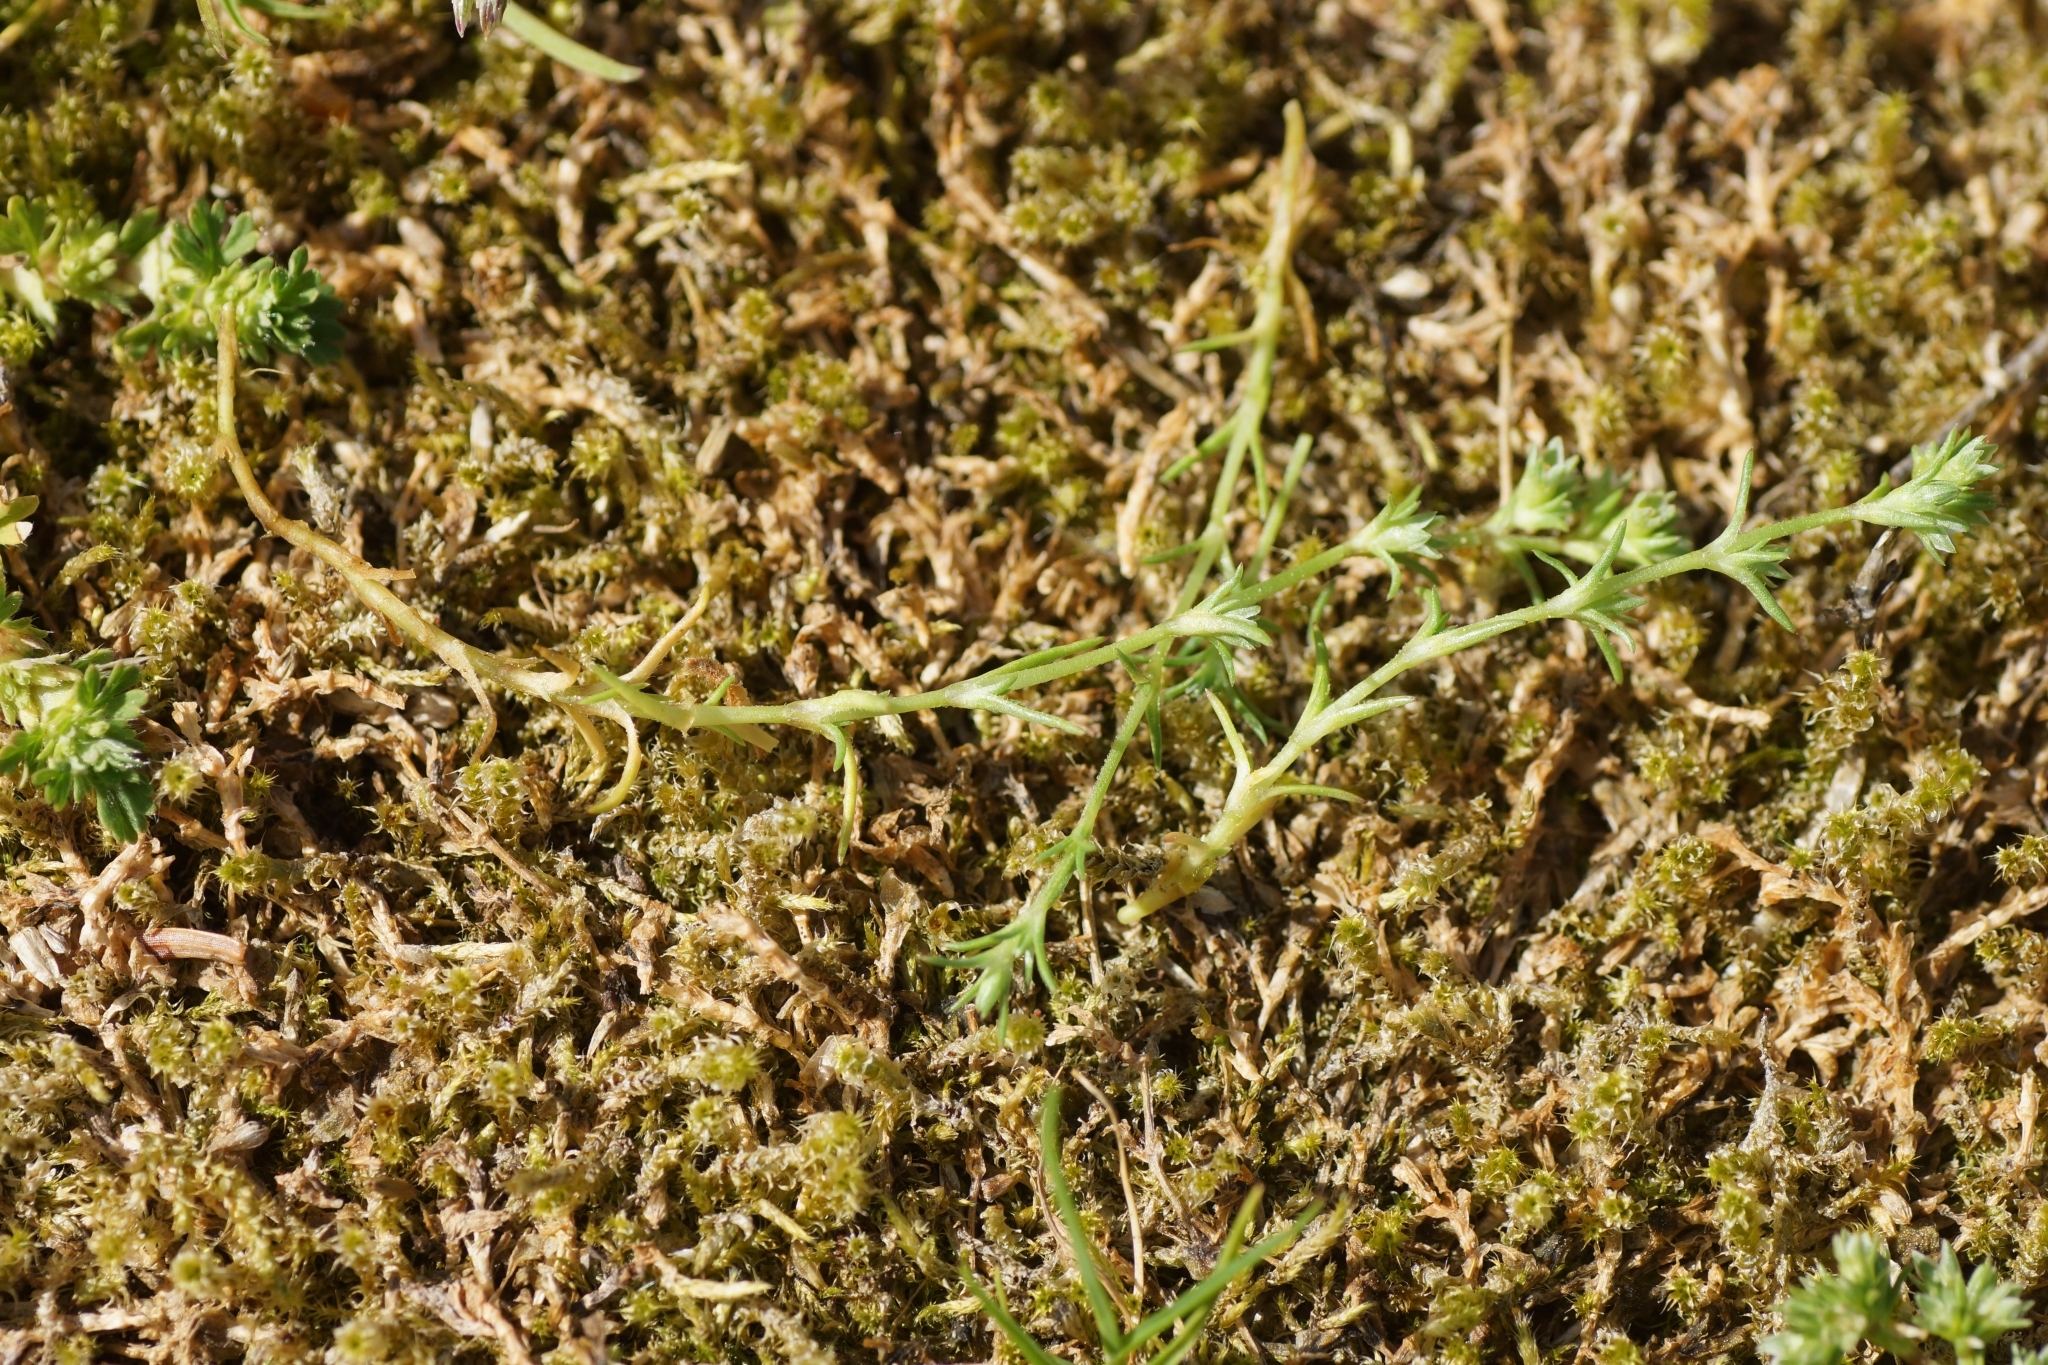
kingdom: Plantae
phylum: Tracheophyta
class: Magnoliopsida
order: Caryophyllales
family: Caryophyllaceae
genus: Scleranthus
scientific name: Scleranthus annuus
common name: Annual knawel
